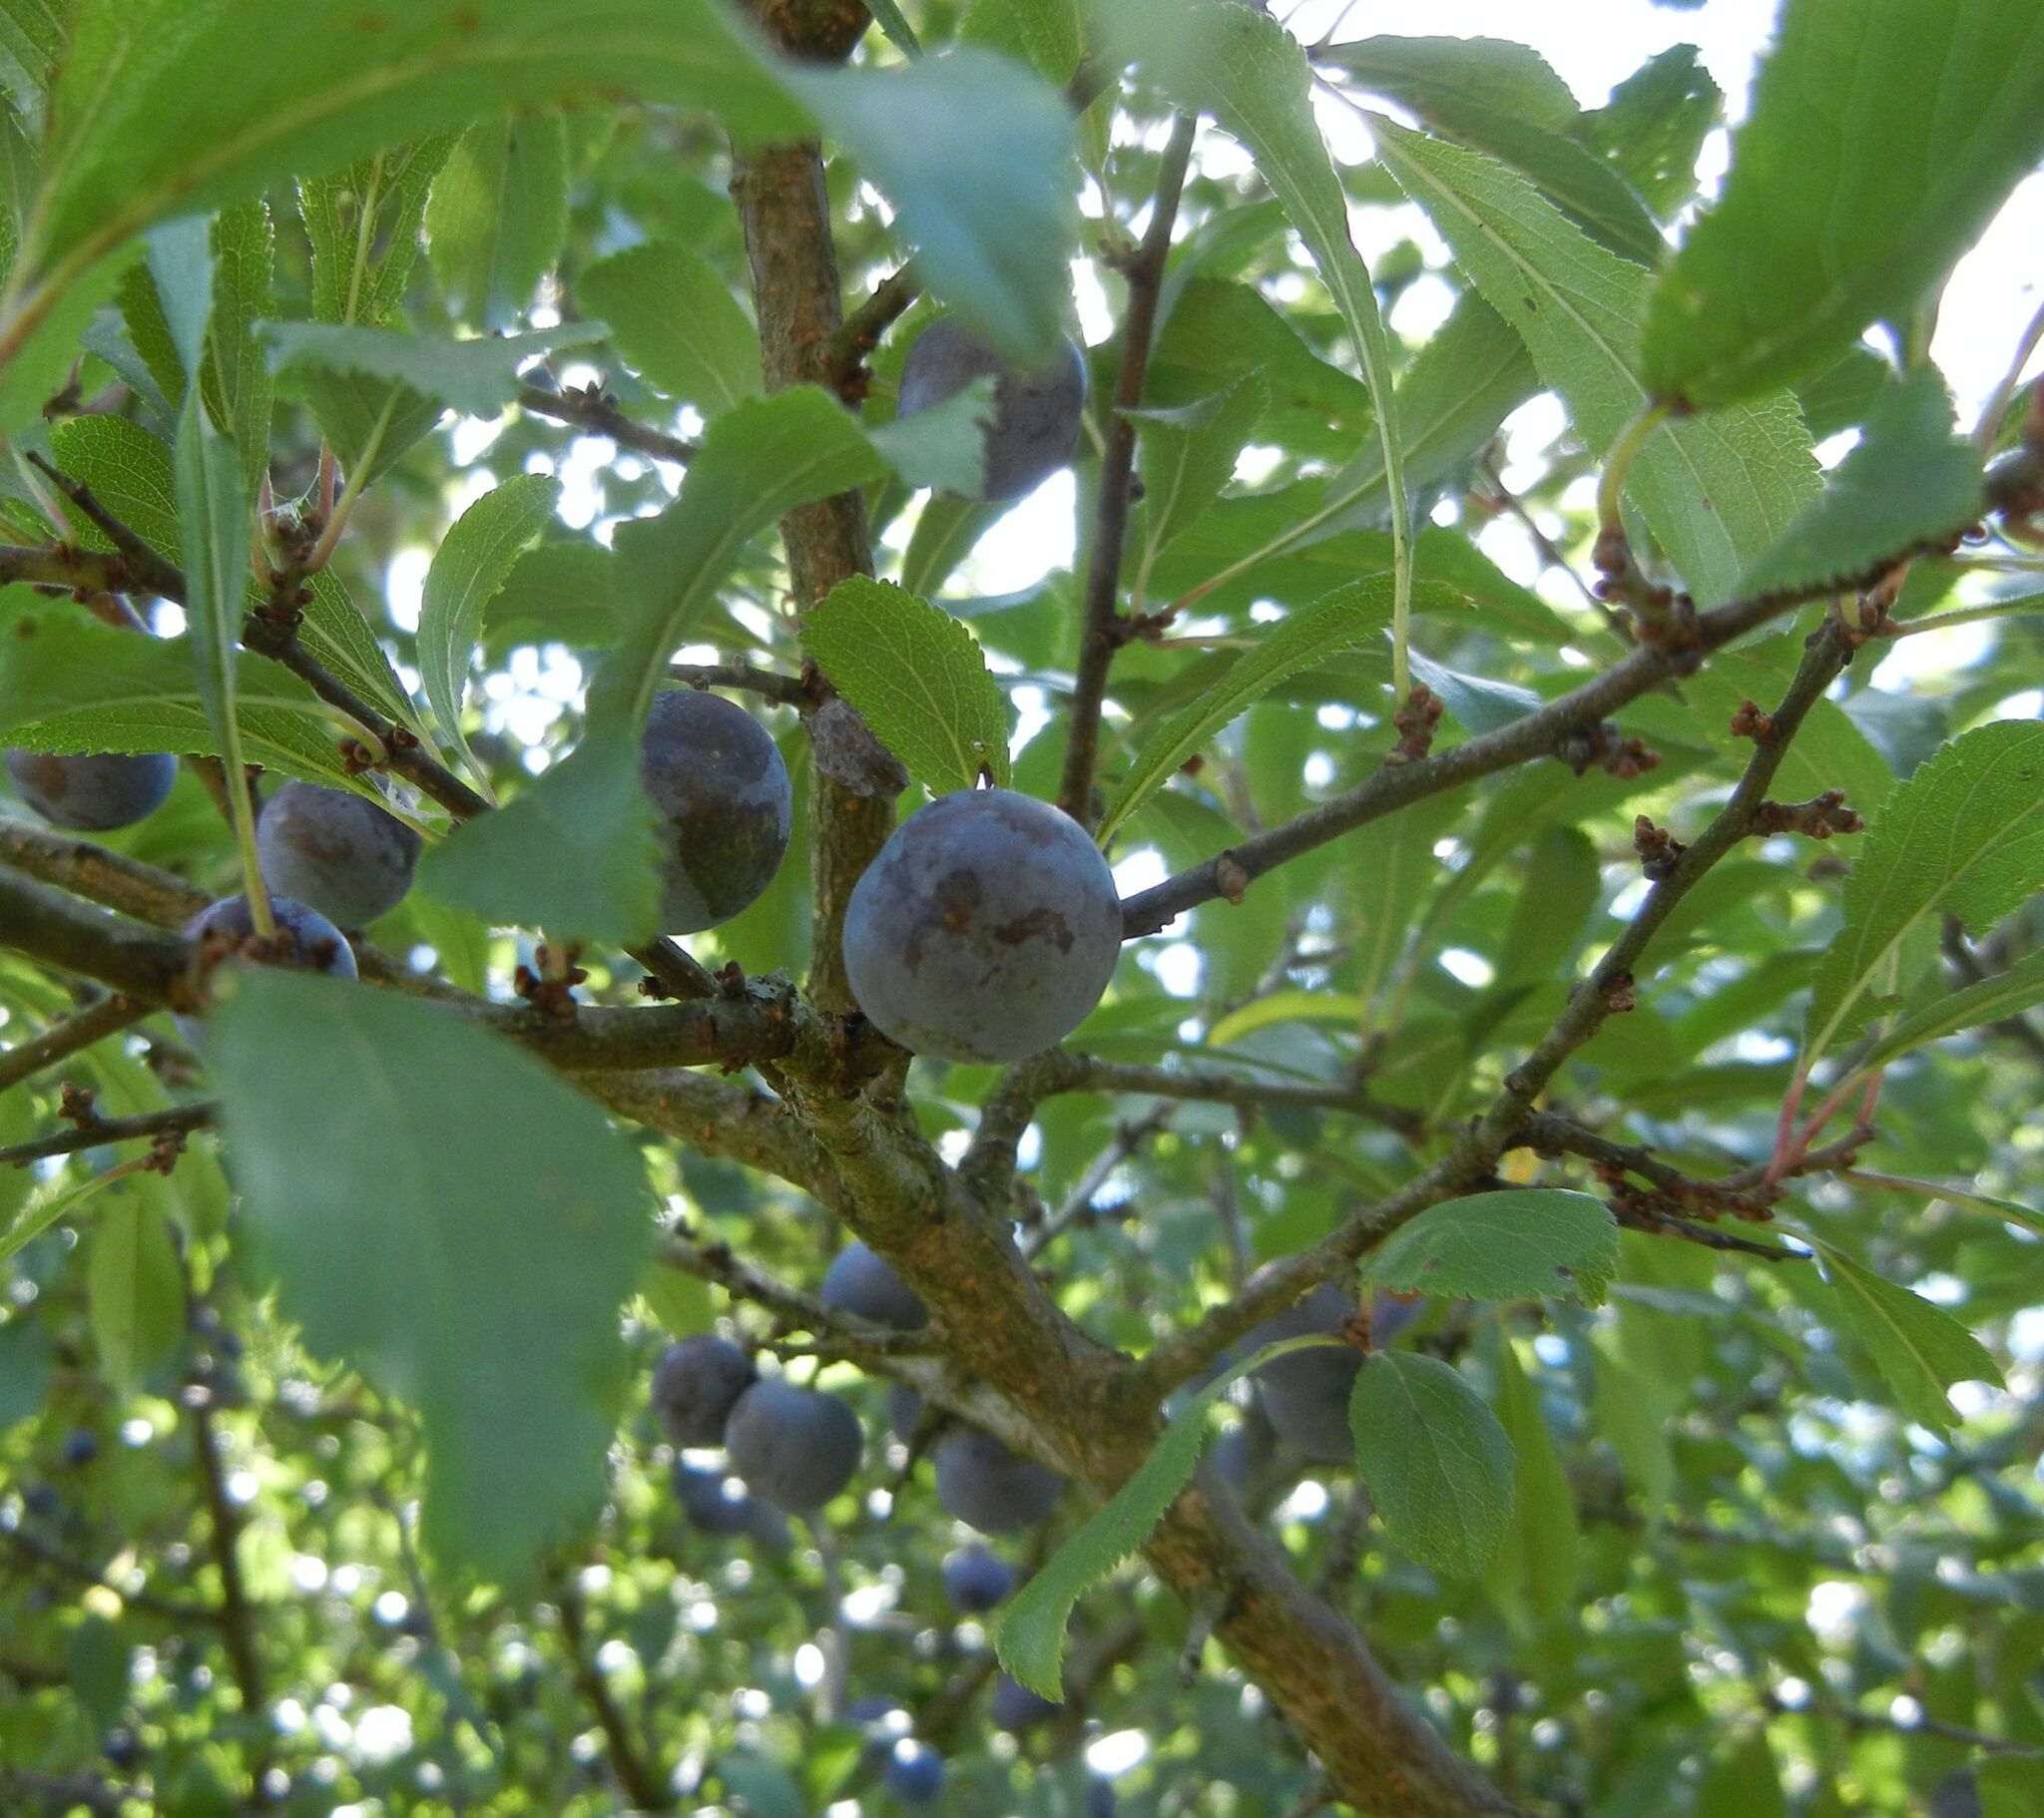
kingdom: Plantae
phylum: Tracheophyta
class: Magnoliopsida
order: Rosales
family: Rosaceae
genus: Prunus
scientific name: Prunus spinosa
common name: Blackthorn
